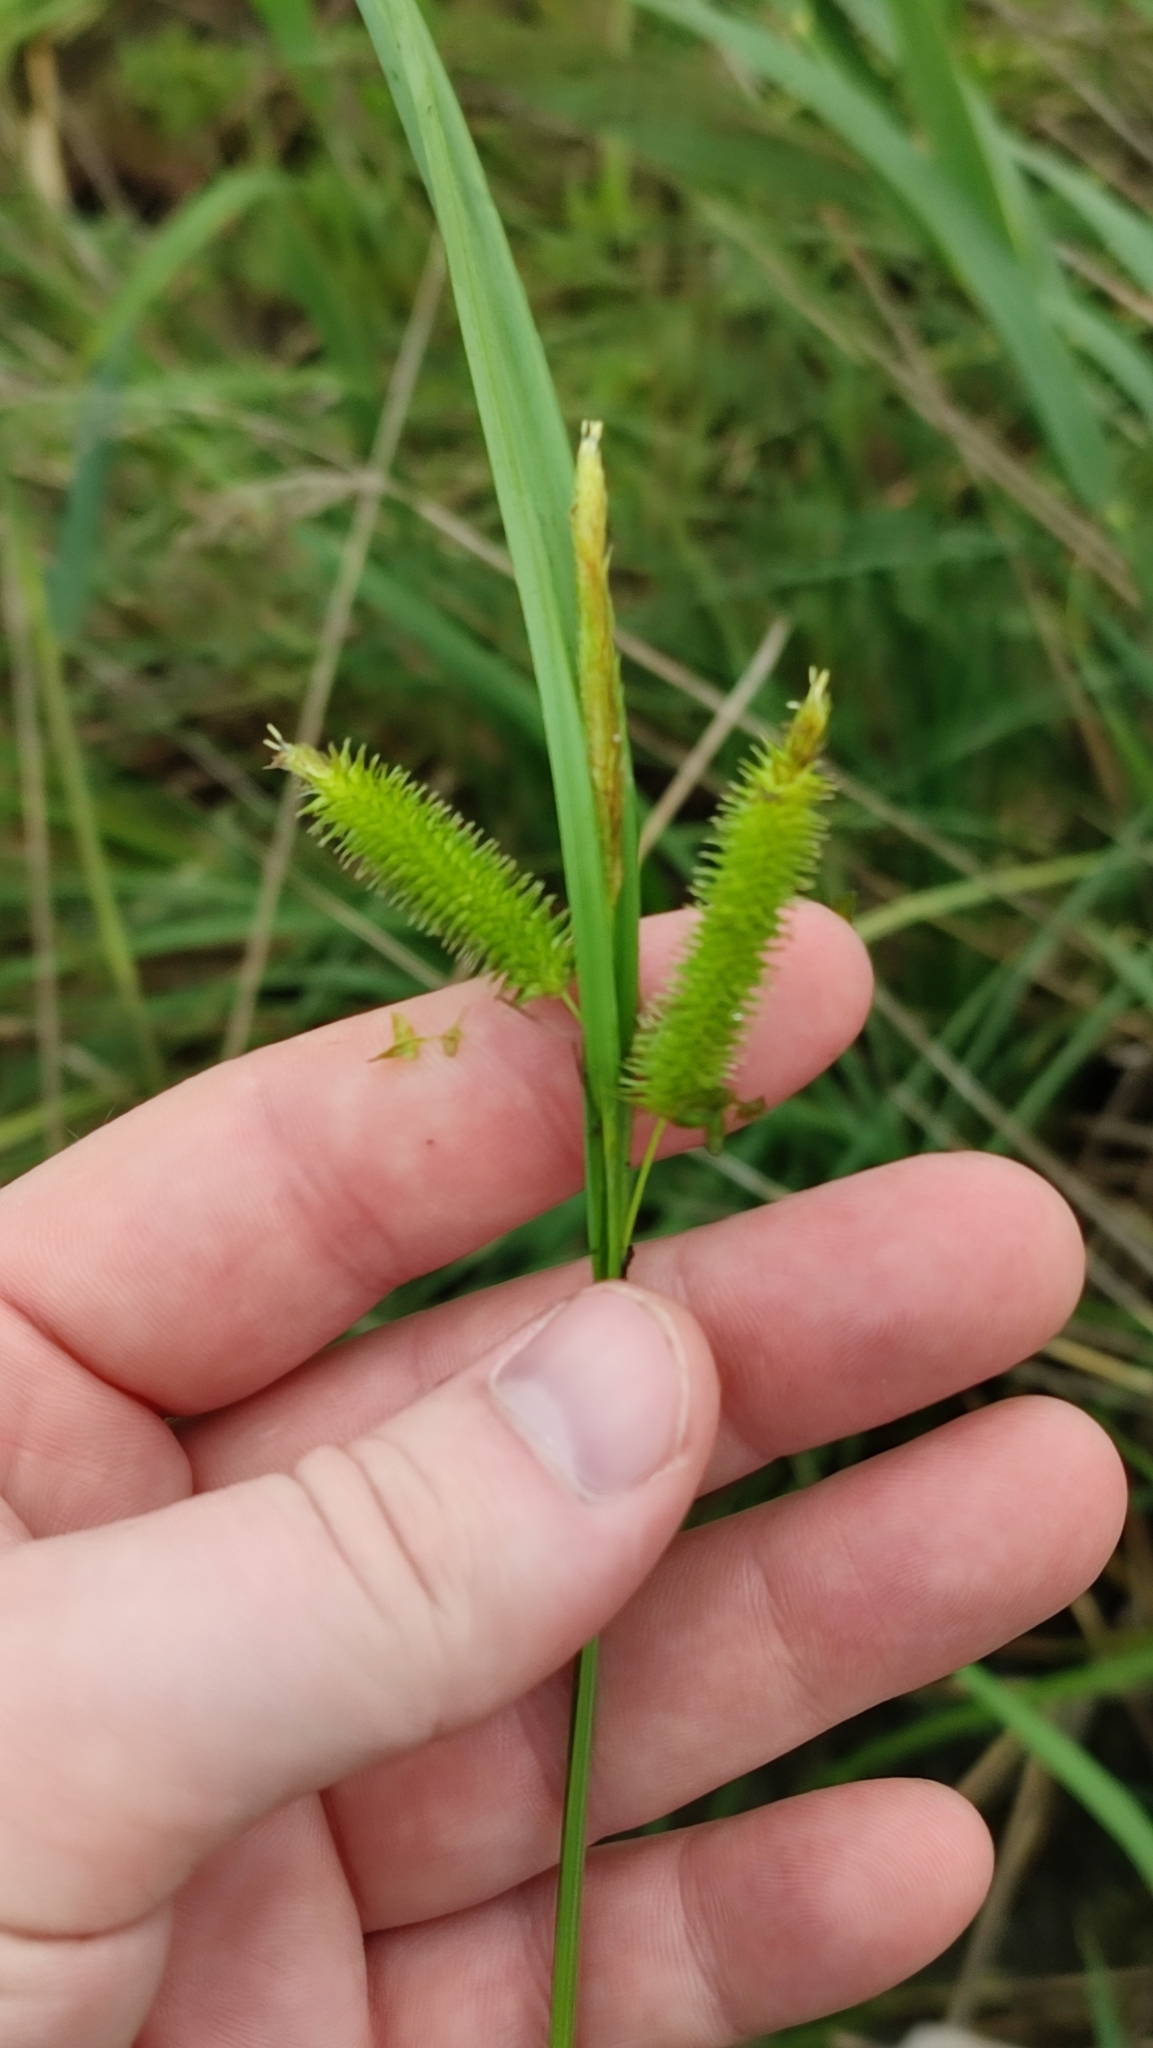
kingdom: Plantae
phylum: Tracheophyta
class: Liliopsida
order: Poales
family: Cyperaceae
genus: Carex
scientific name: Carex pseudocyperus
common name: Cyperus sedge
